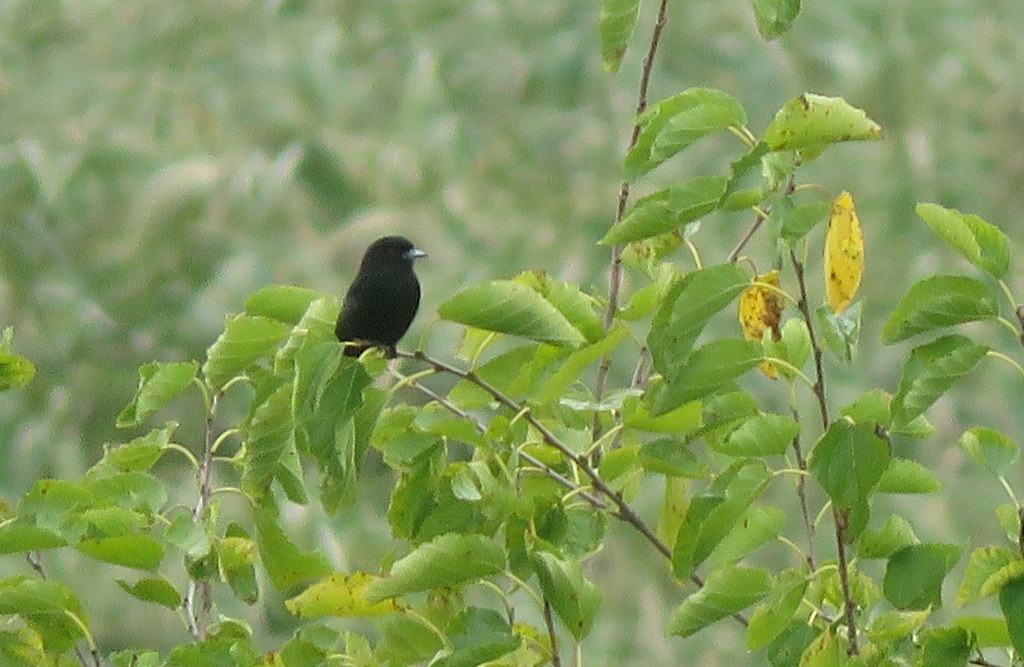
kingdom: Animalia
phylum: Chordata
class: Aves
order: Passeriformes
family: Tyrannidae
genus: Knipolegus
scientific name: Knipolegus cyanirostris
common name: Blue-billed black tyrant
